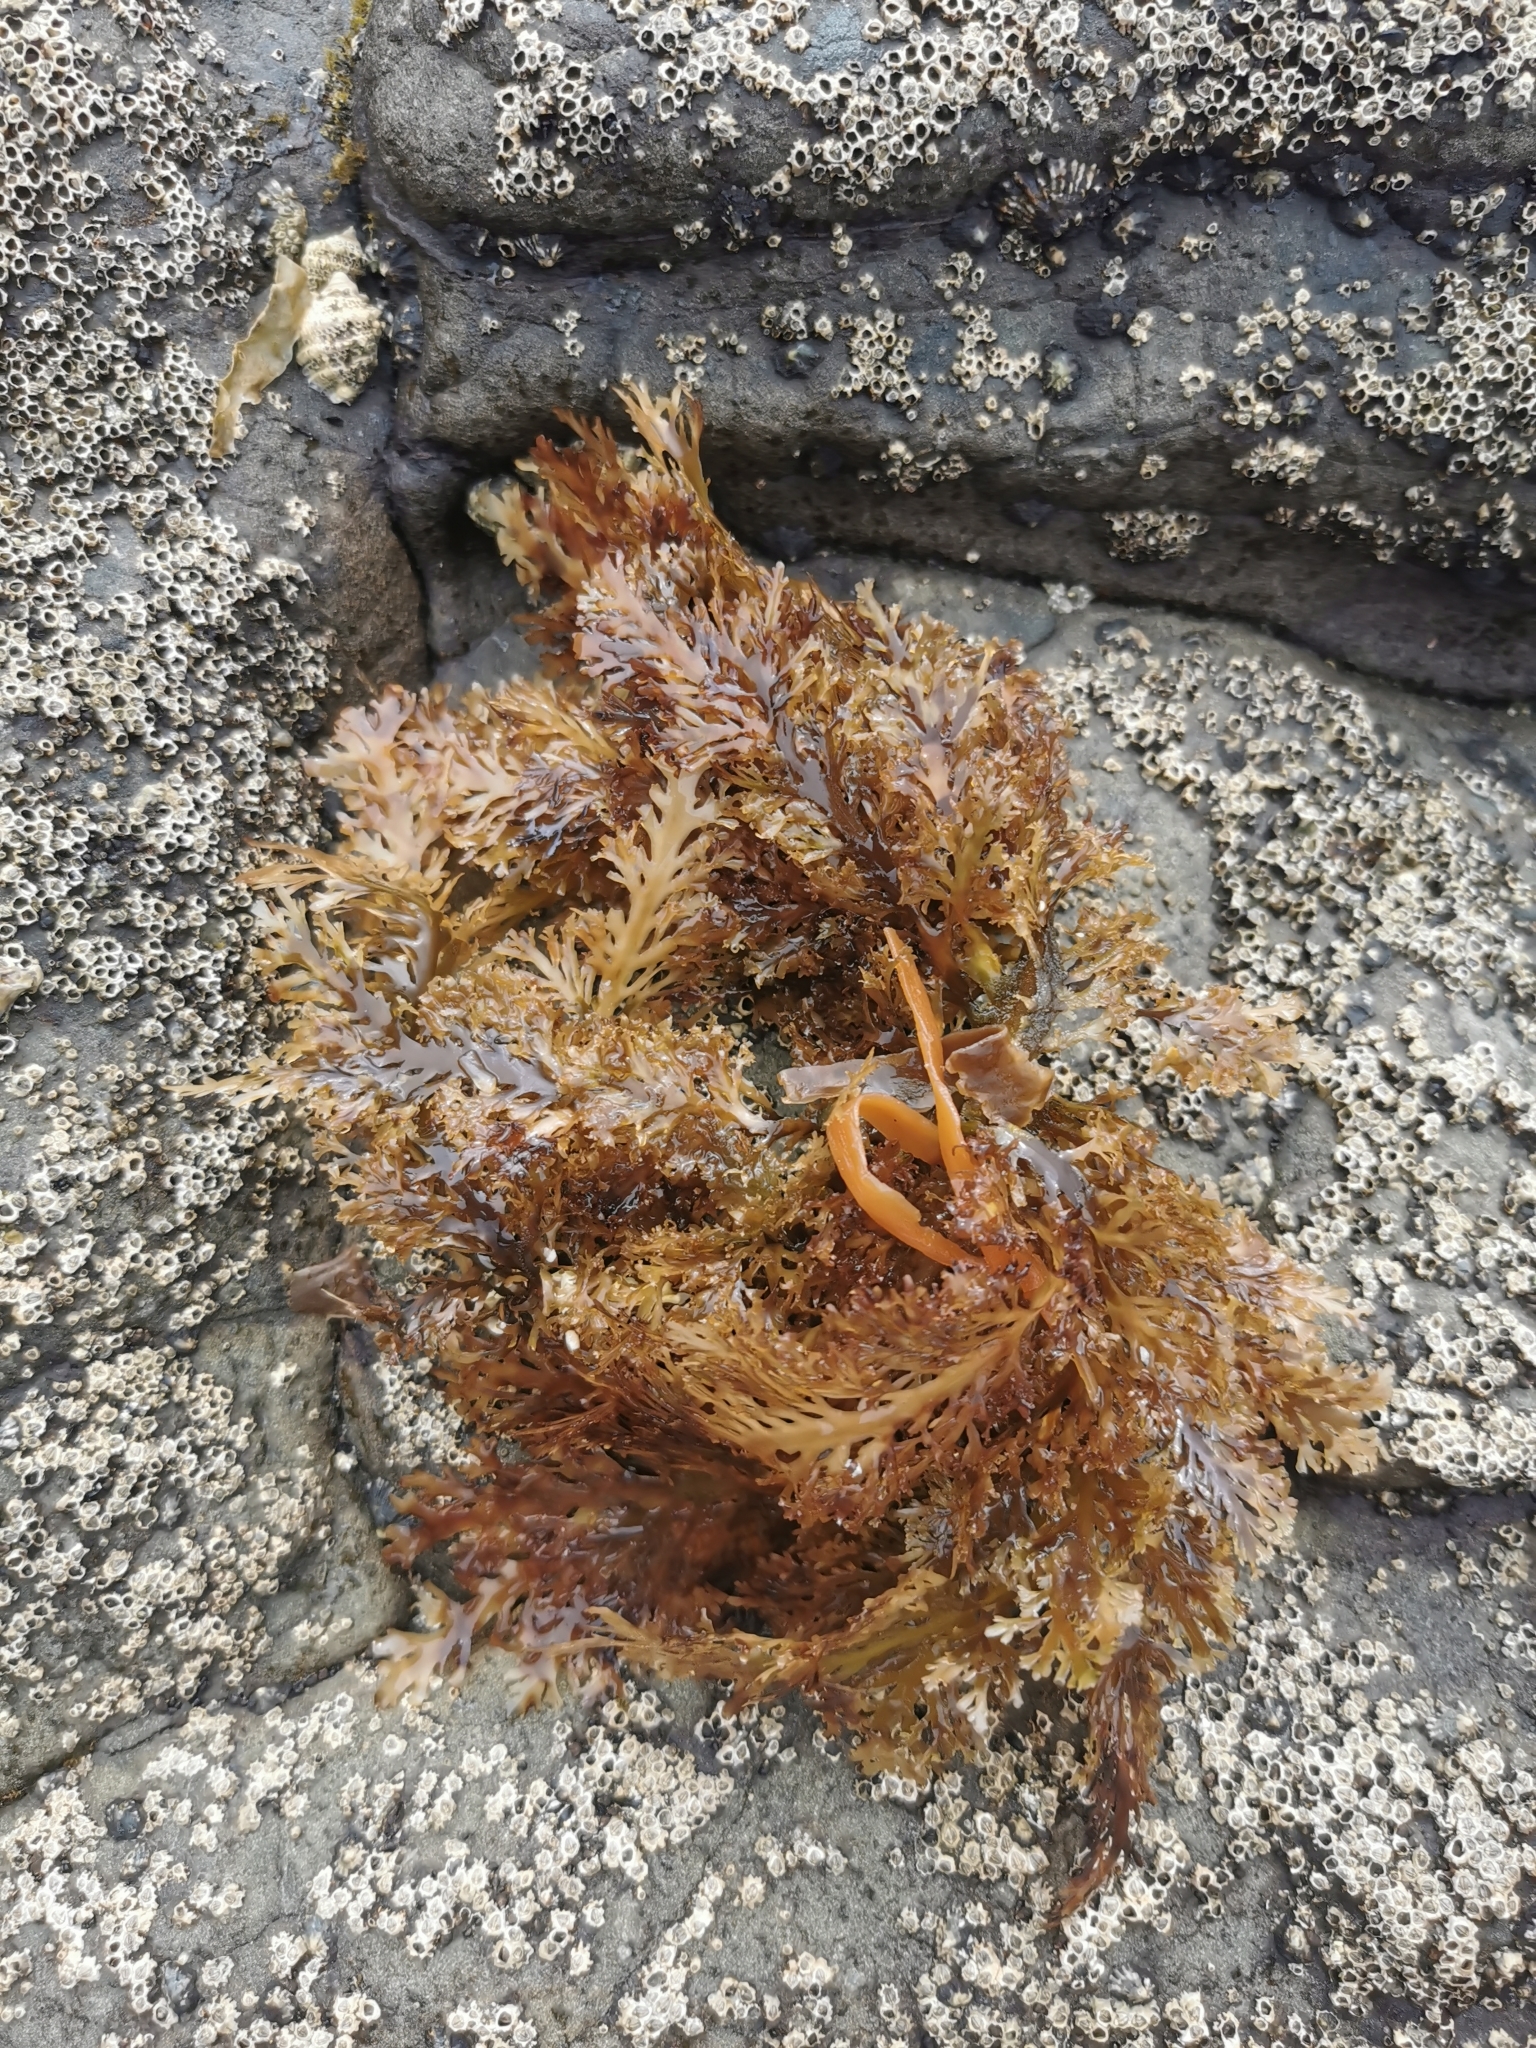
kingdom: Plantae
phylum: Rhodophyta
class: Florideophyceae
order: Gelidiales
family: Pterocladiaceae
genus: Pterocladia
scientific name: Pterocladia lucida
